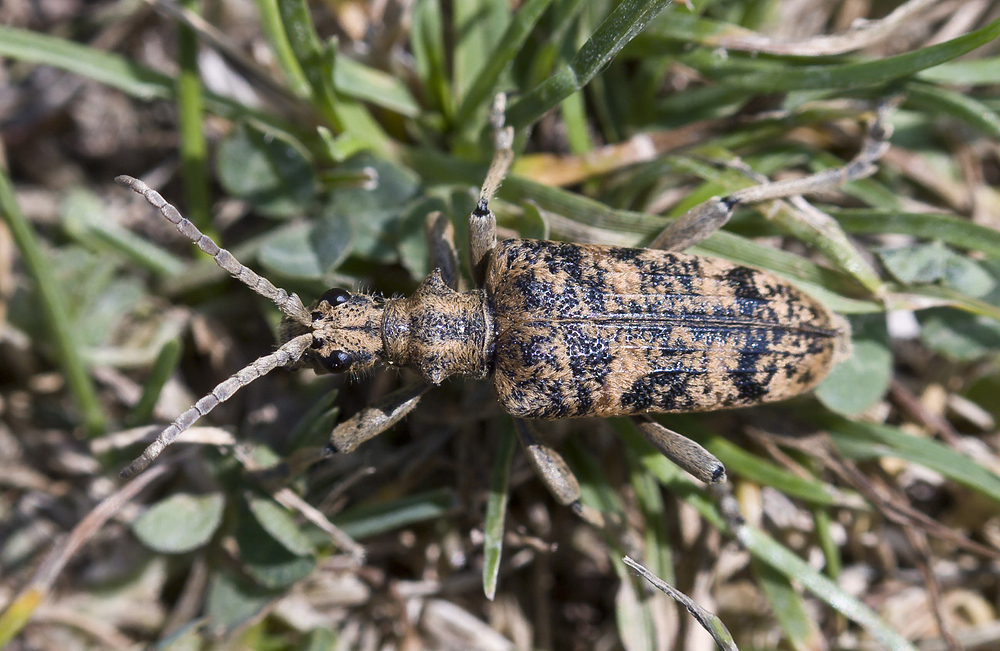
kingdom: Animalia
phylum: Arthropoda
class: Insecta
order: Coleoptera
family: Cerambycidae
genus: Rhagium
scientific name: Rhagium sycophanta
